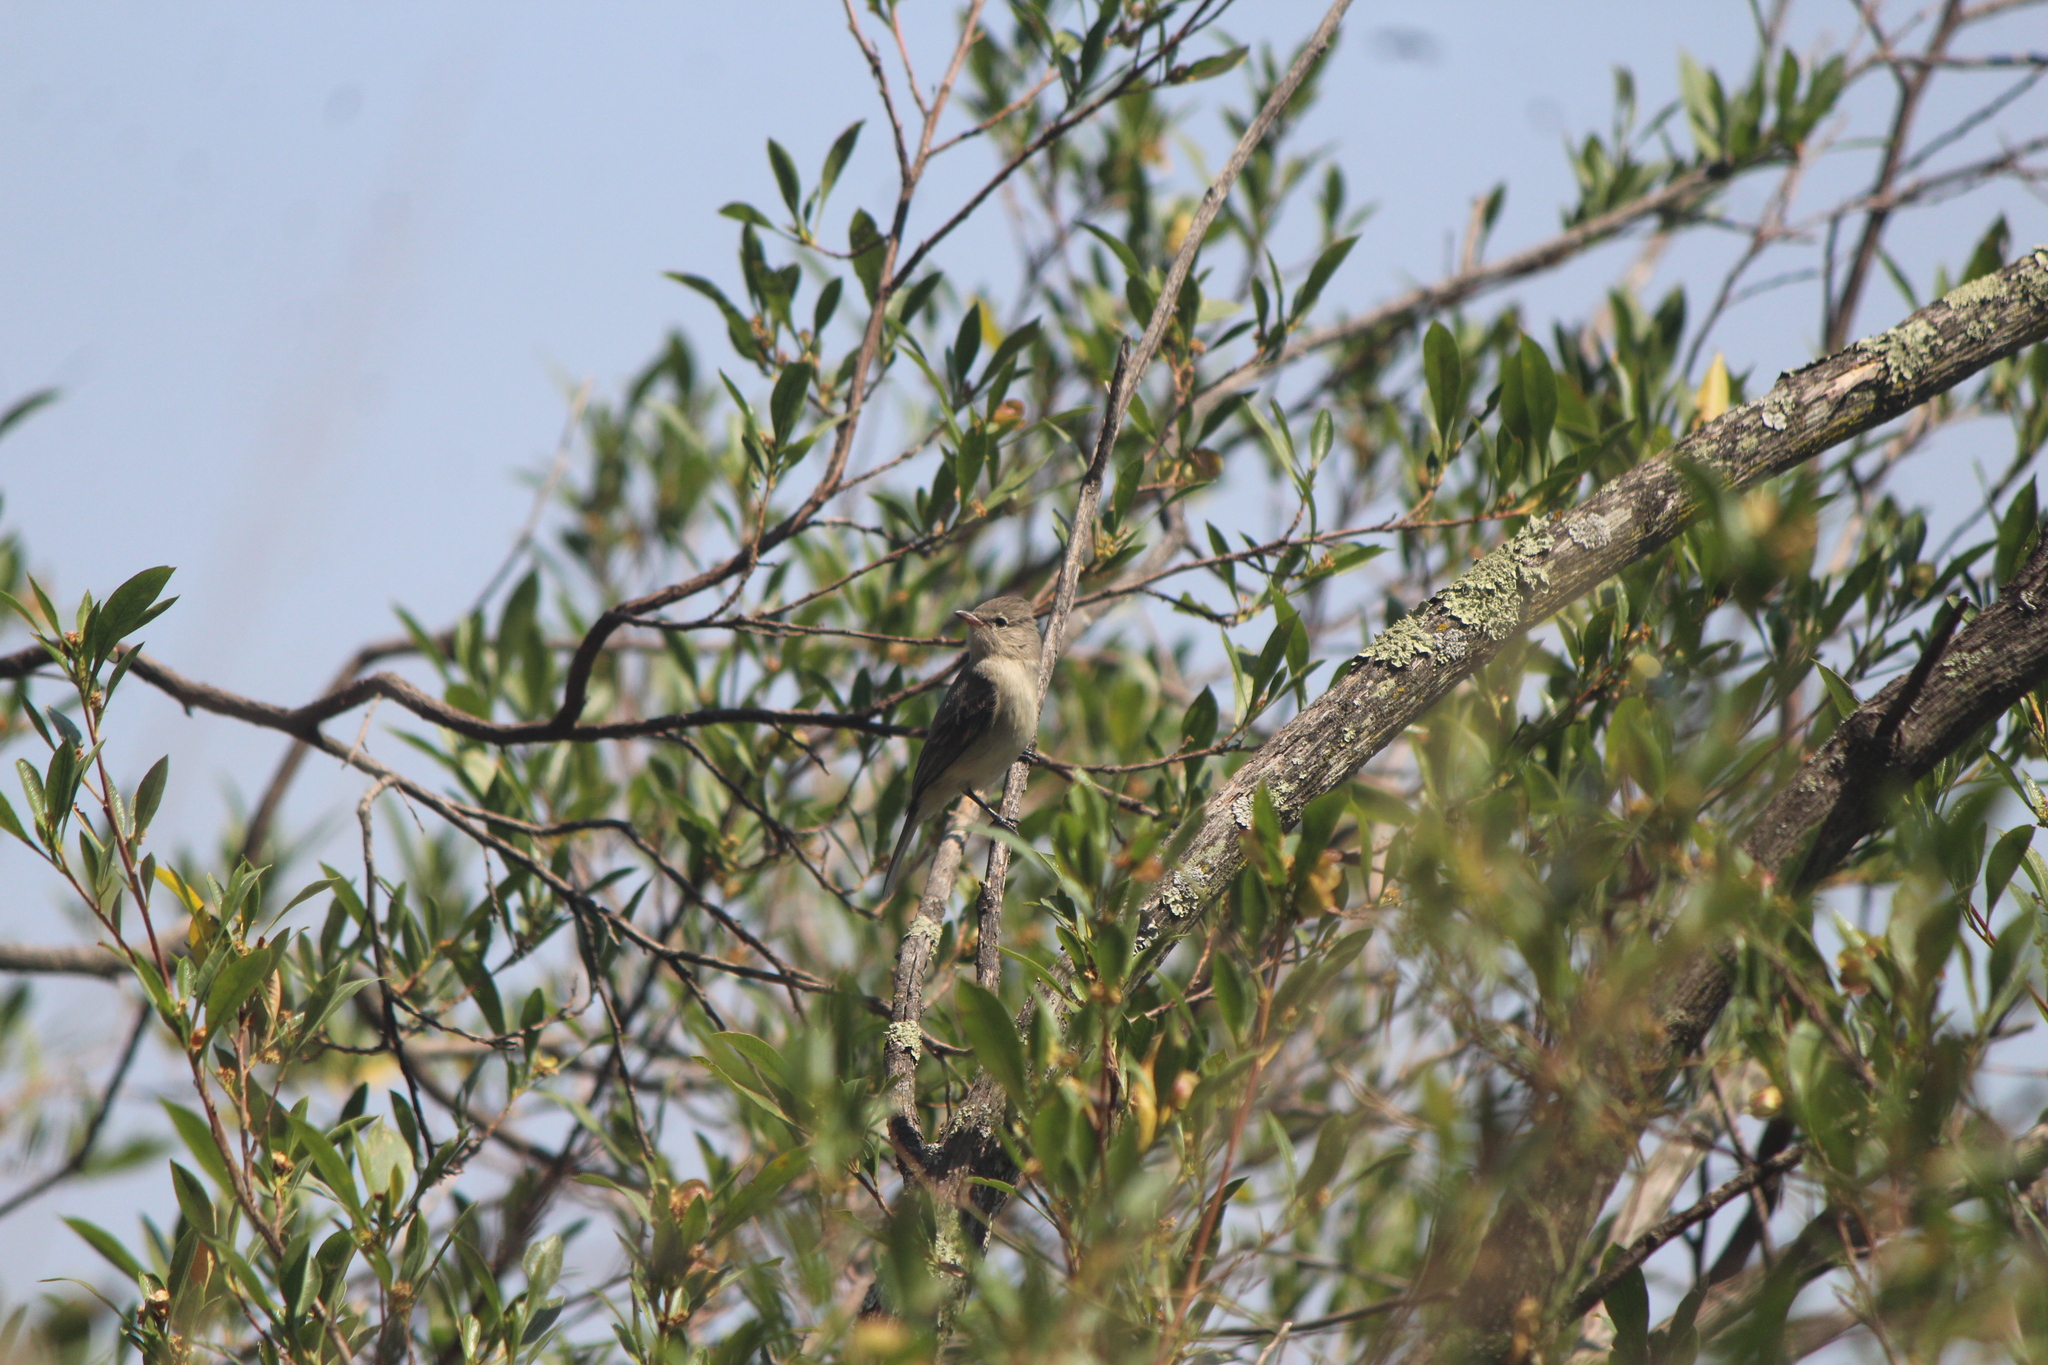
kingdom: Animalia
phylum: Chordata
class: Aves
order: Passeriformes
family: Tyrannidae
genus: Camptostoma
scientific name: Camptostoma imberbe
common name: Northern beardless-tyrannulet
